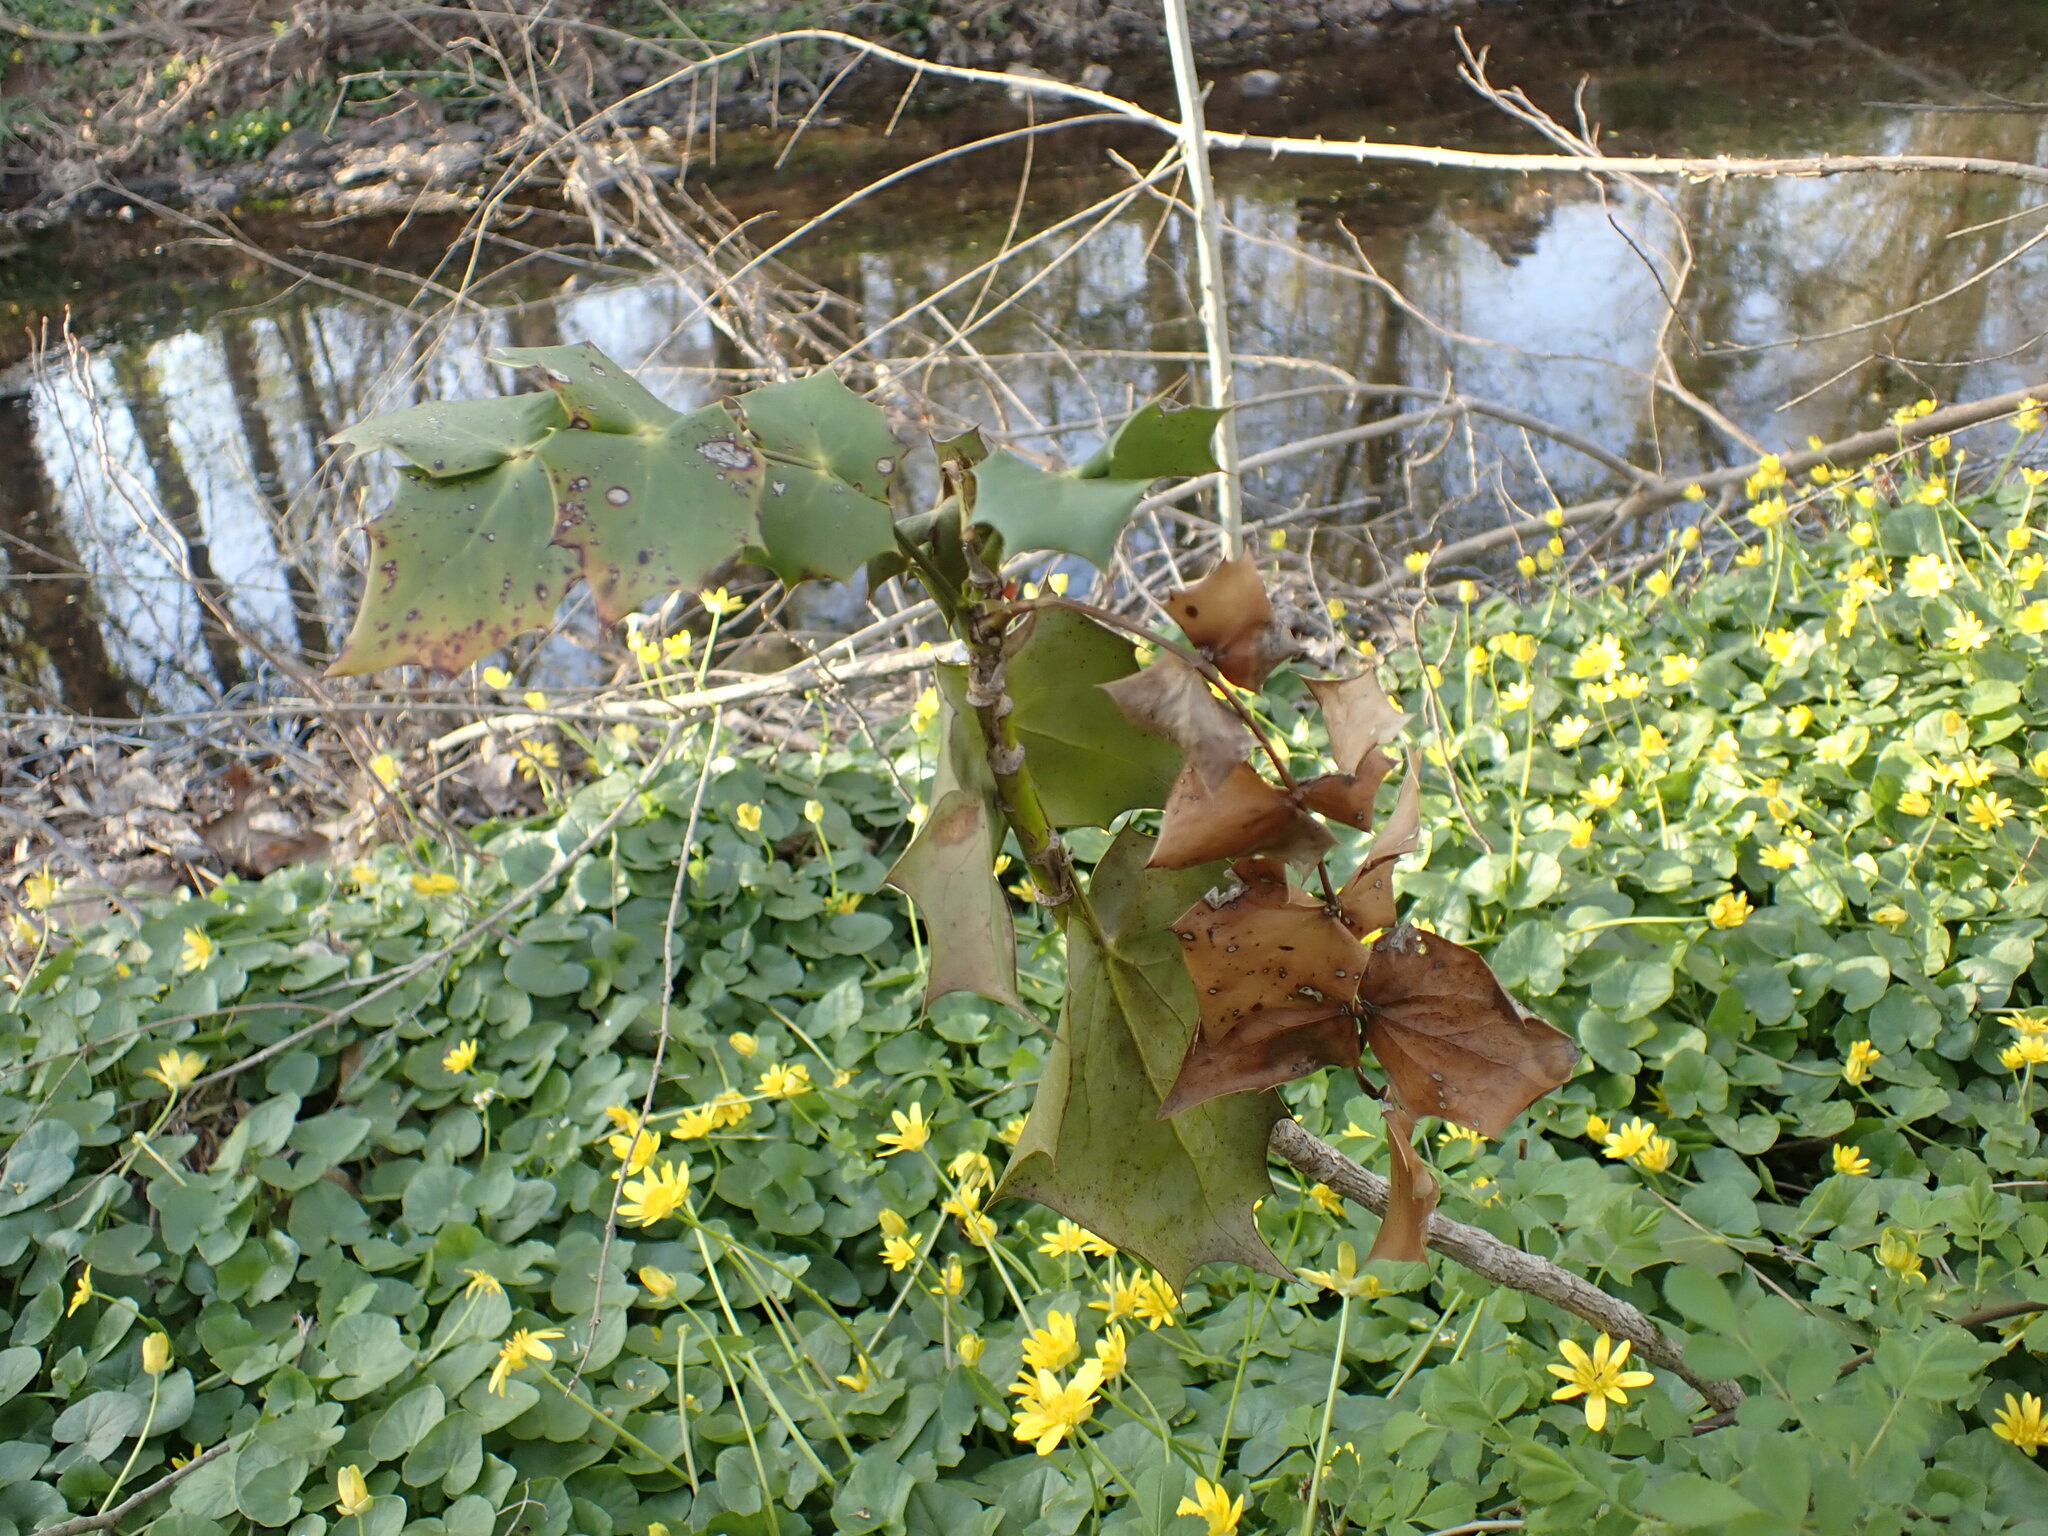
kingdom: Plantae
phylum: Tracheophyta
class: Magnoliopsida
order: Ranunculales
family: Berberidaceae
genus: Mahonia
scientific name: Mahonia bealei
